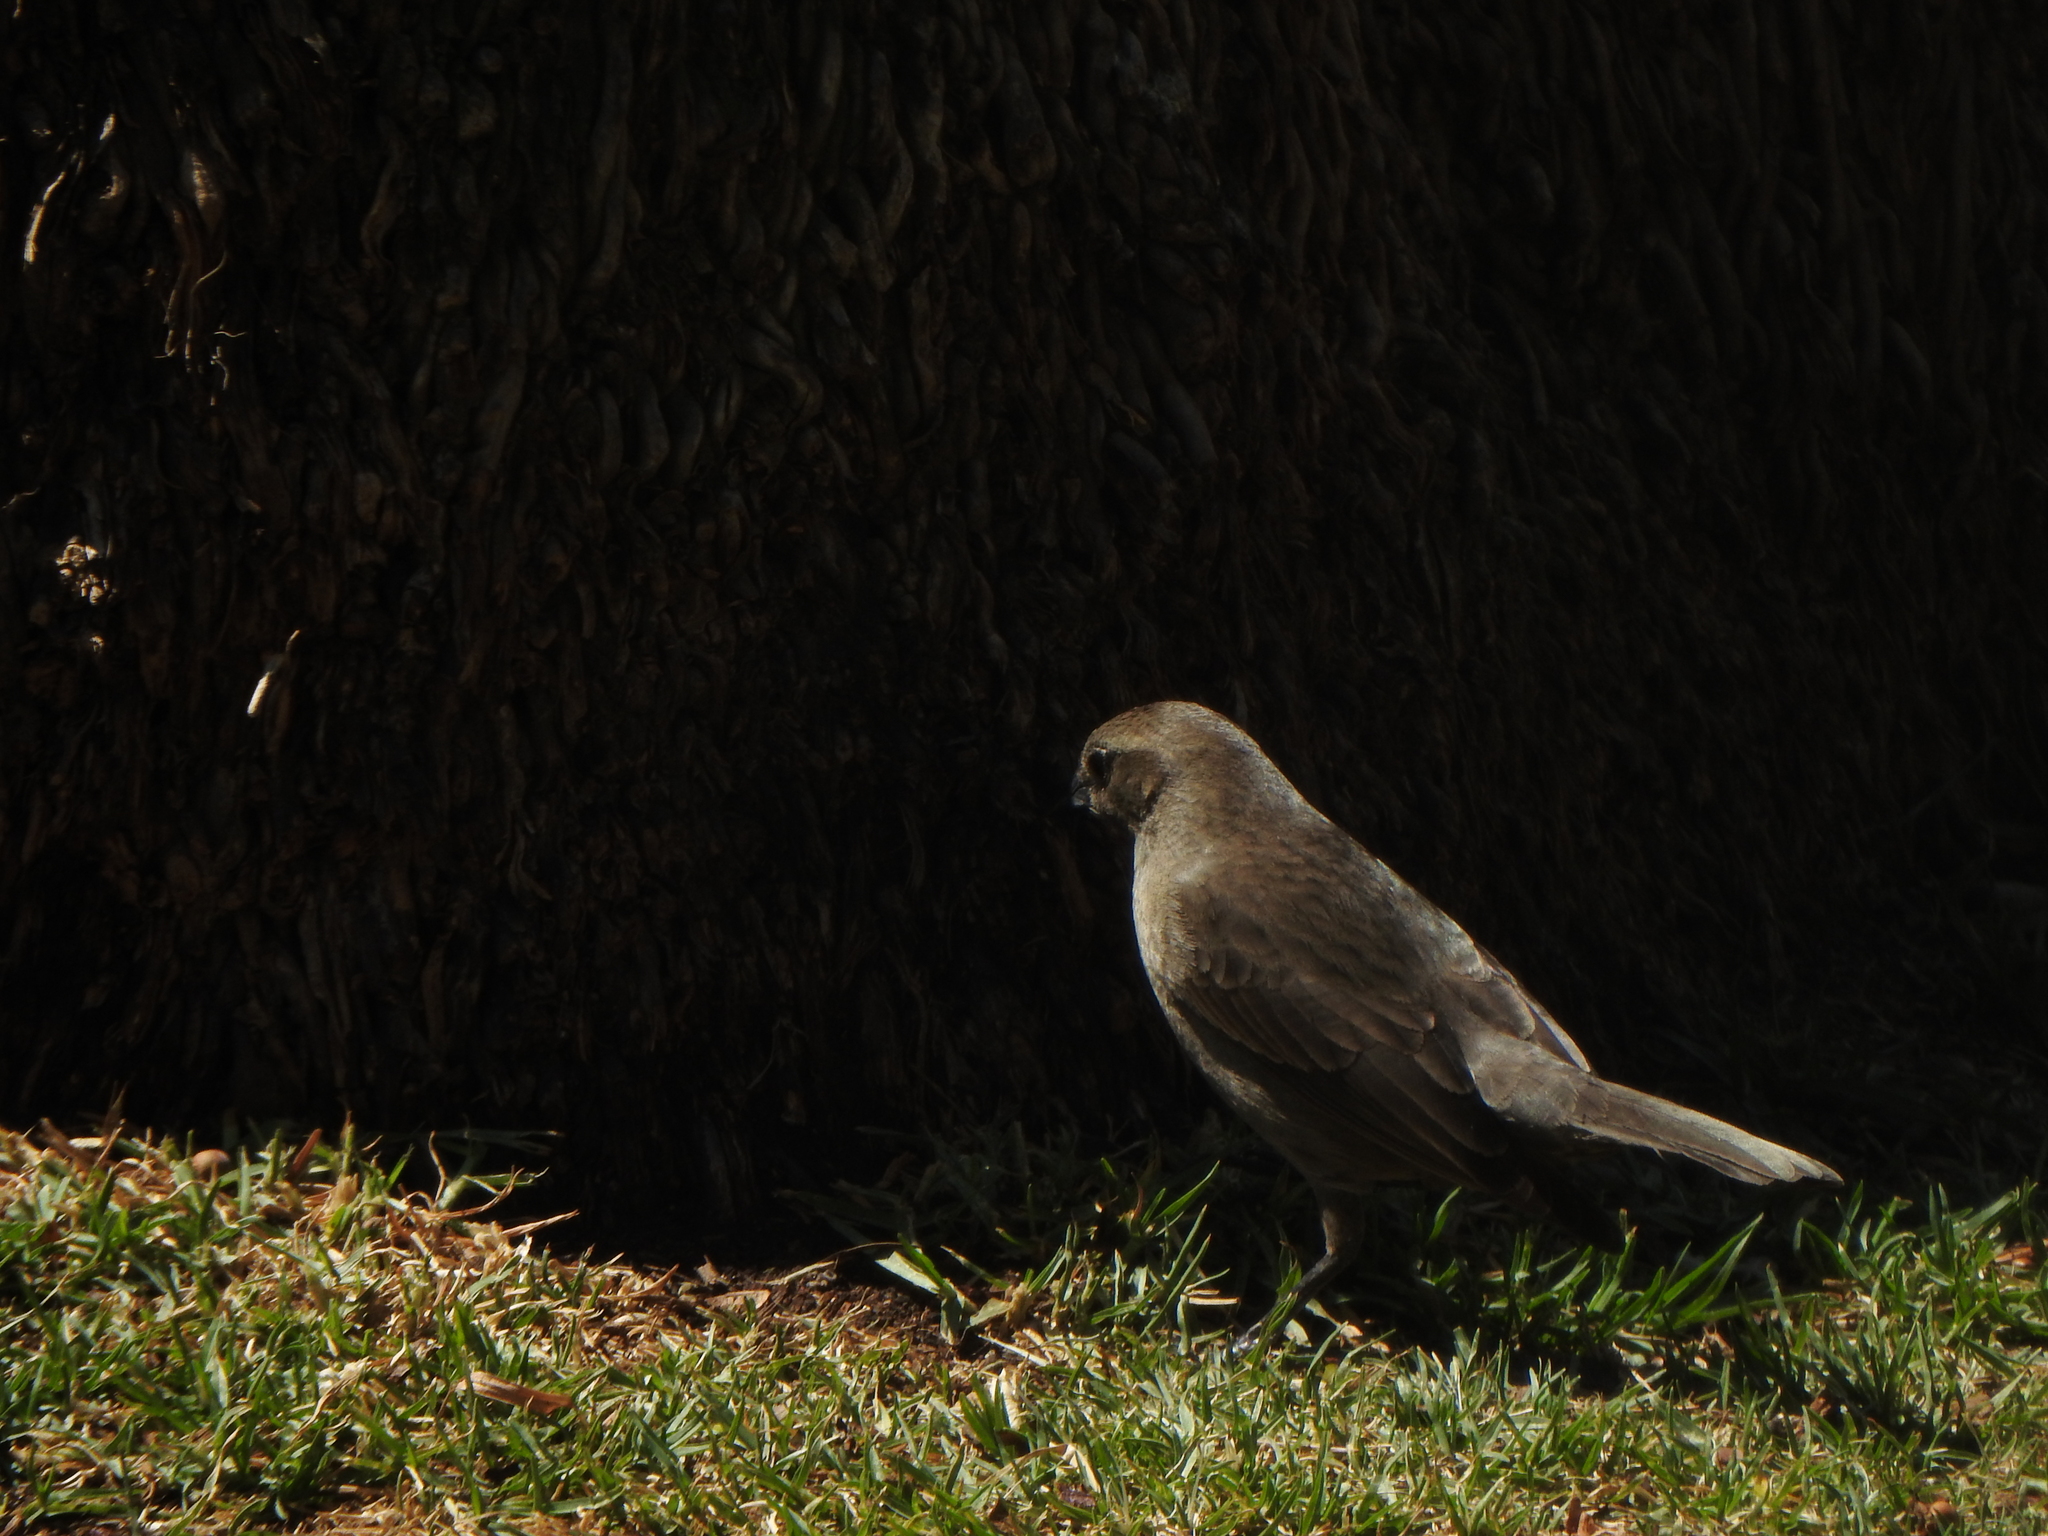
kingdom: Animalia
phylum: Chordata
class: Aves
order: Passeriformes
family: Icteridae
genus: Molothrus
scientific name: Molothrus bonariensis
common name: Shiny cowbird
